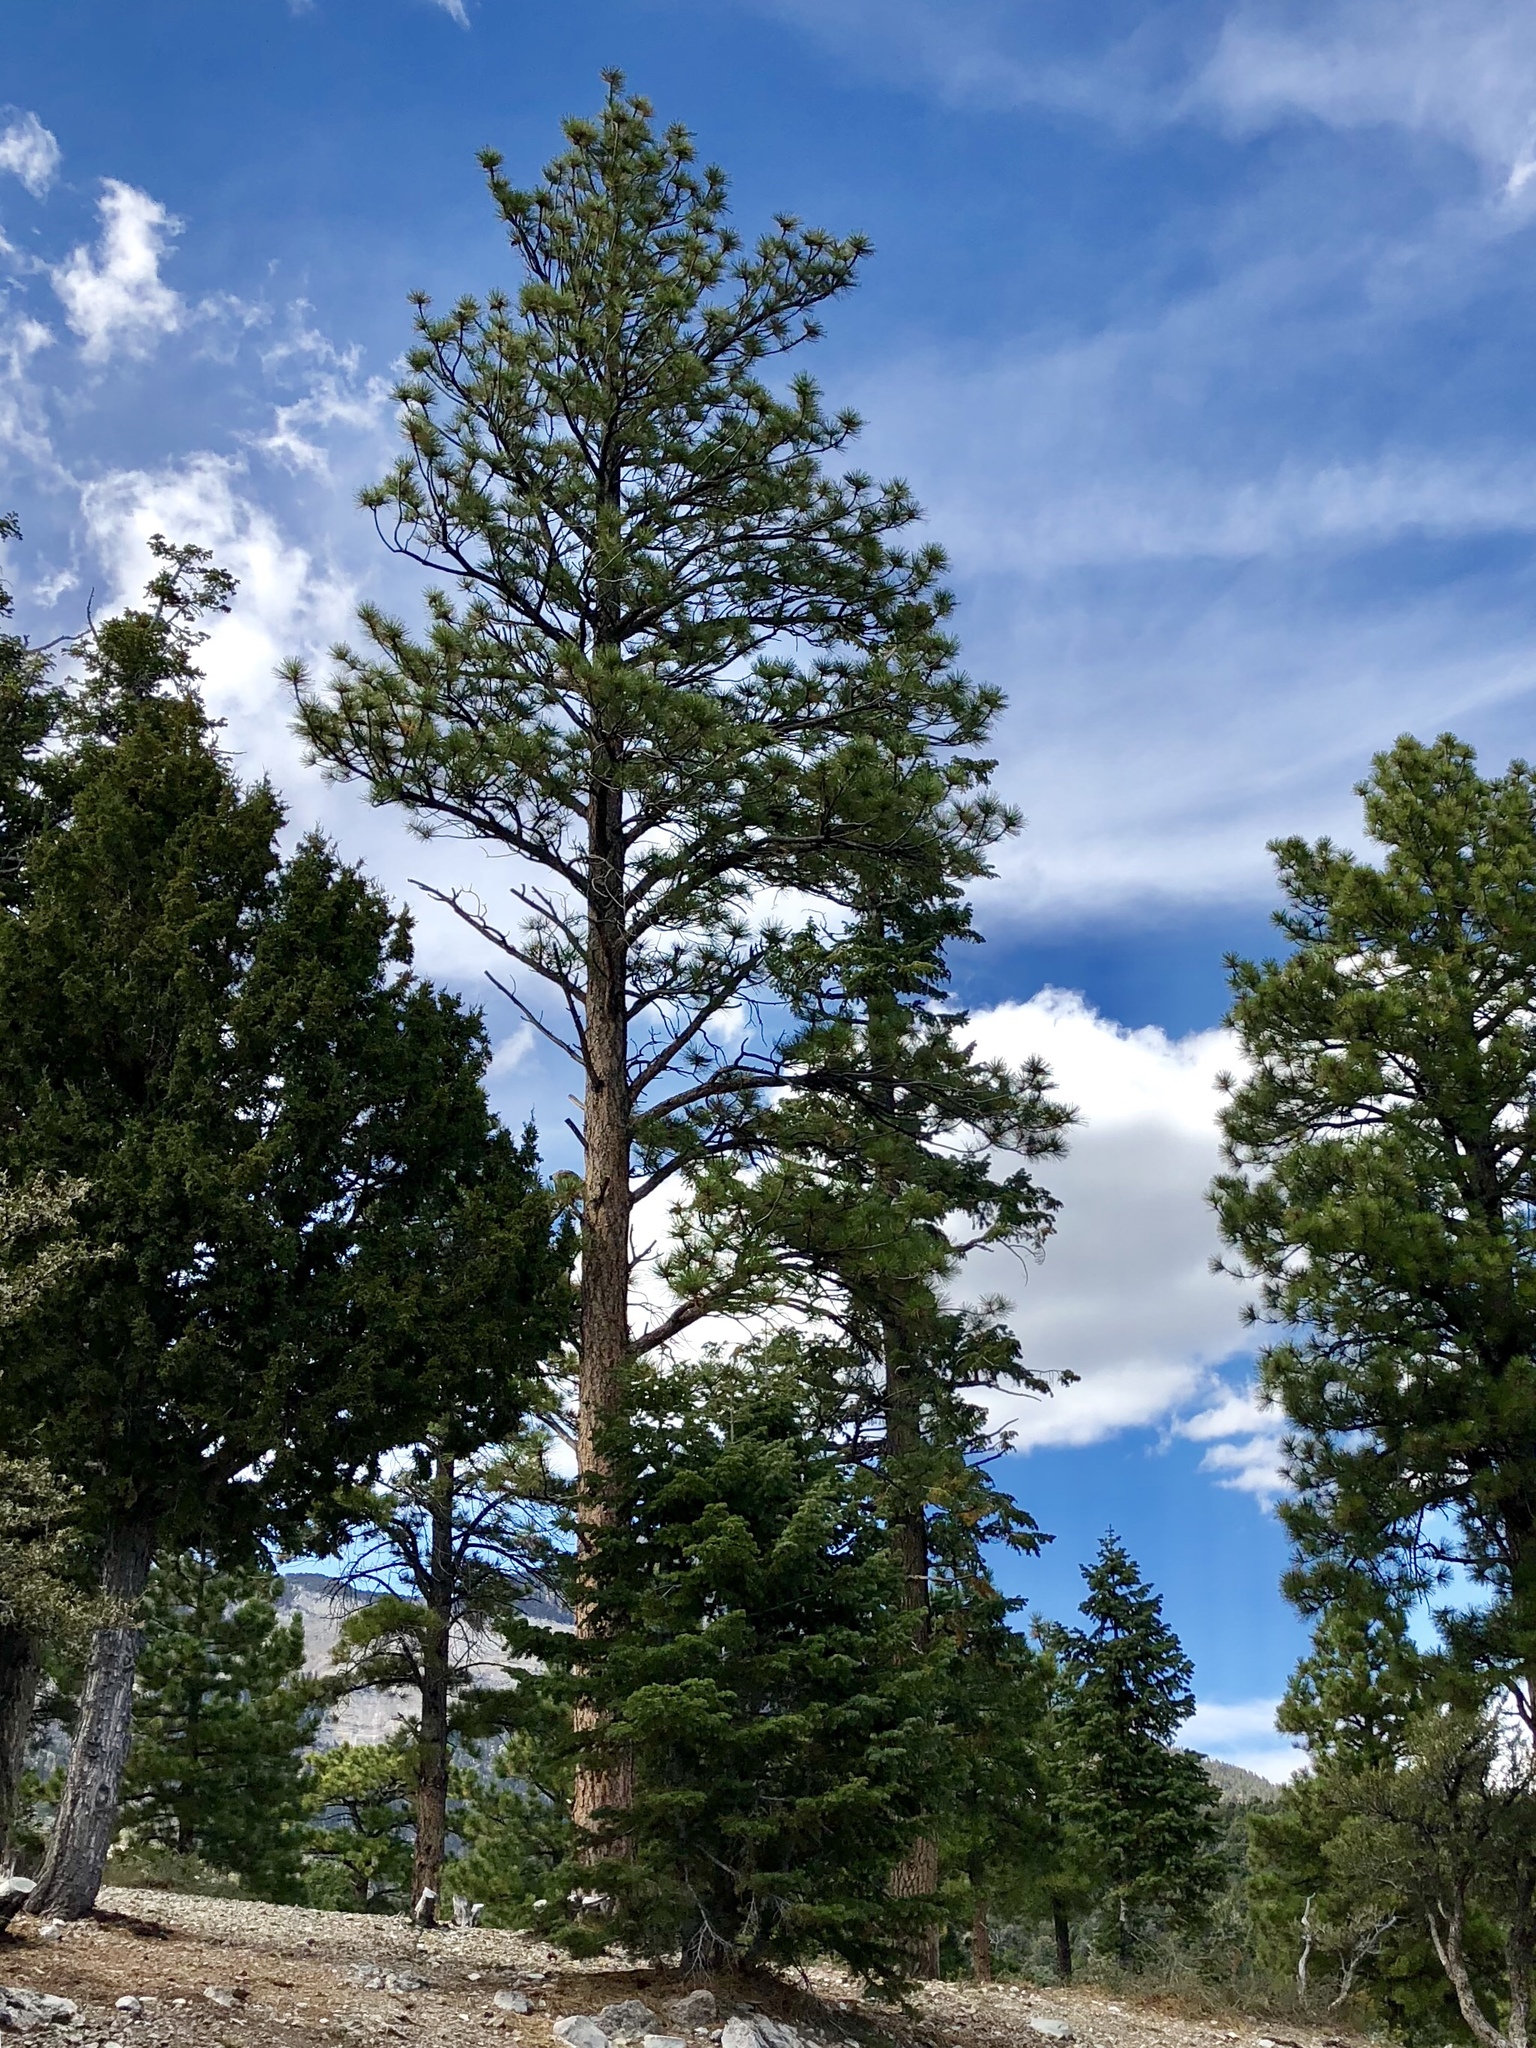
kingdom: Plantae
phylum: Tracheophyta
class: Pinopsida
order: Pinales
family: Pinaceae
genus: Pinus
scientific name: Pinus ponderosa
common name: Western yellow-pine
